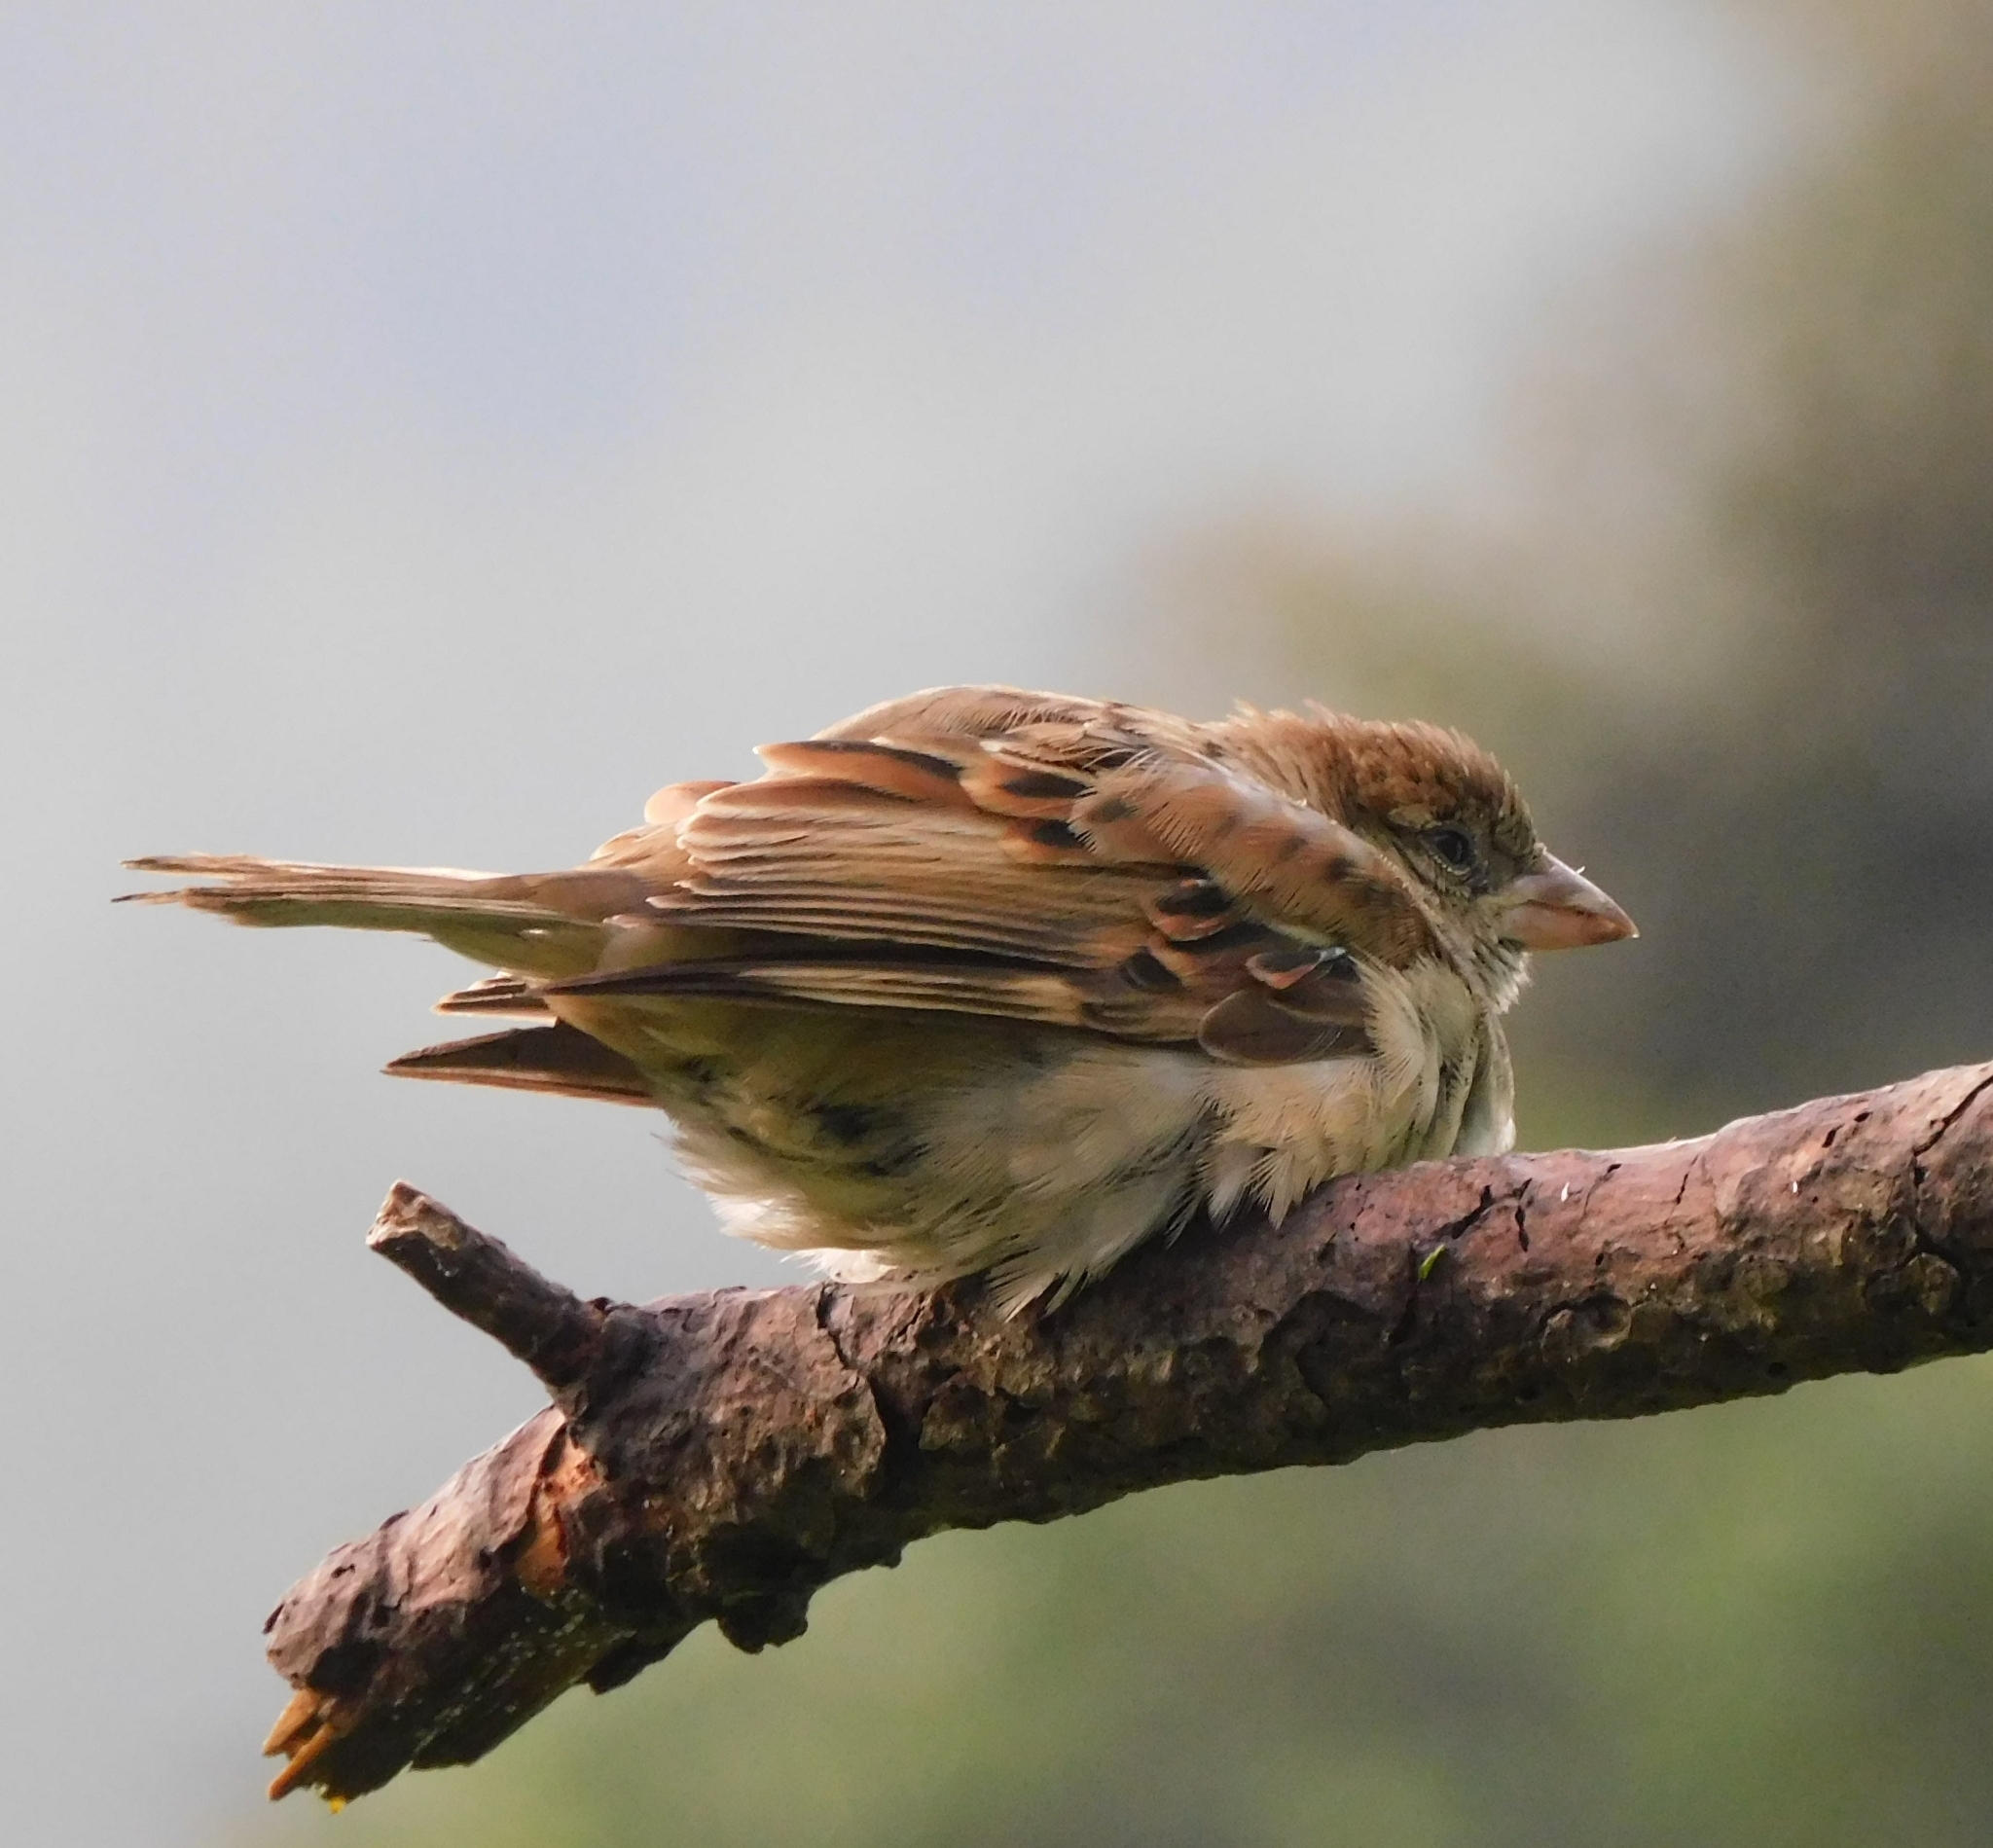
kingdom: Animalia
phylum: Chordata
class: Aves
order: Passeriformes
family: Passeridae
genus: Passer
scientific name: Passer cinnamomeus
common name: Russet sparrow
